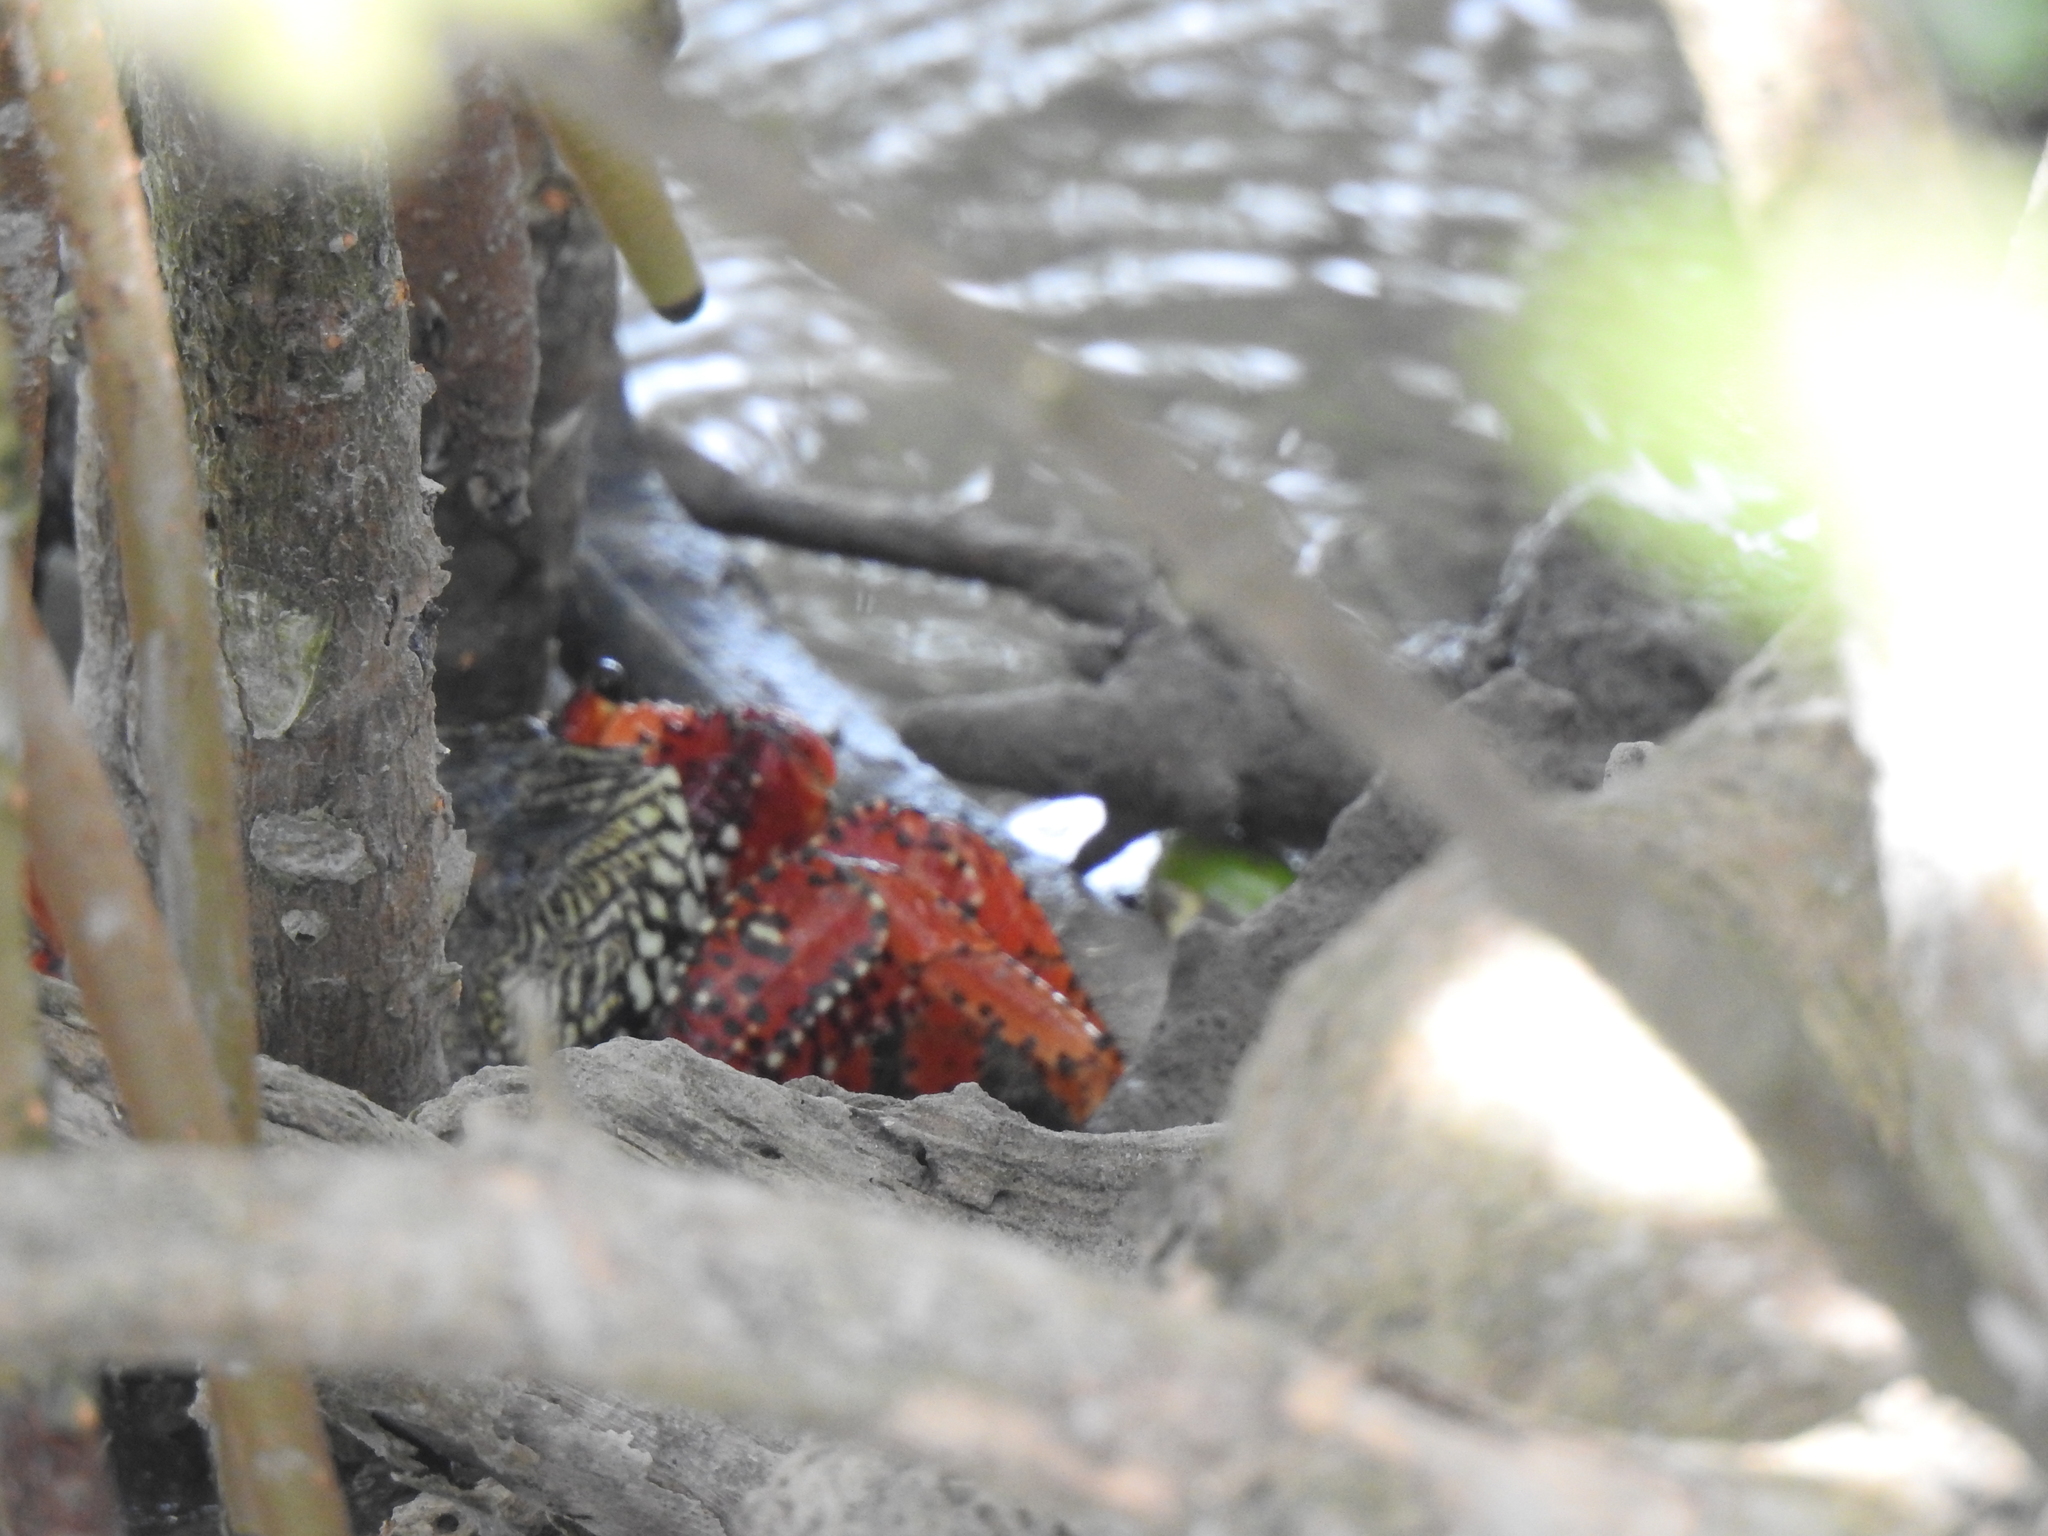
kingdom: Animalia
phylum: Arthropoda
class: Malacostraca
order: Decapoda
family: Grapsidae
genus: Goniopsis
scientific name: Goniopsis cruentata
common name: Mangrove crab
